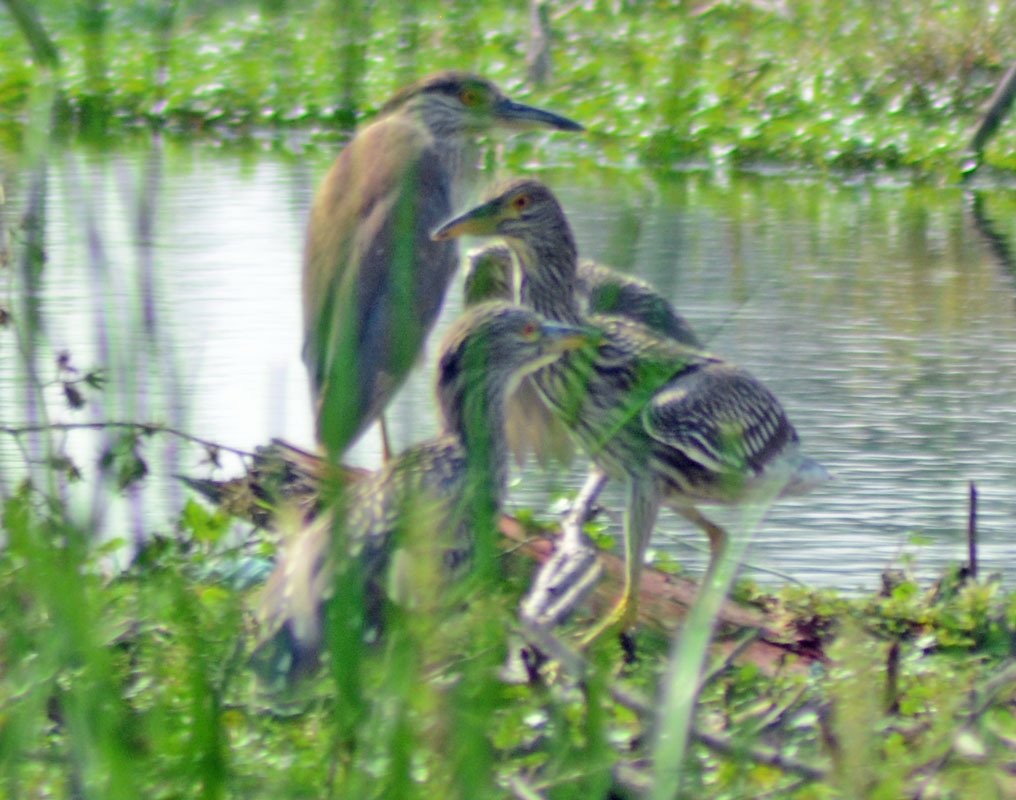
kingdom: Animalia
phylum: Chordata
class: Aves
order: Pelecaniformes
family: Ardeidae
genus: Nycticorax
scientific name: Nycticorax nycticorax
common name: Black-crowned night heron
